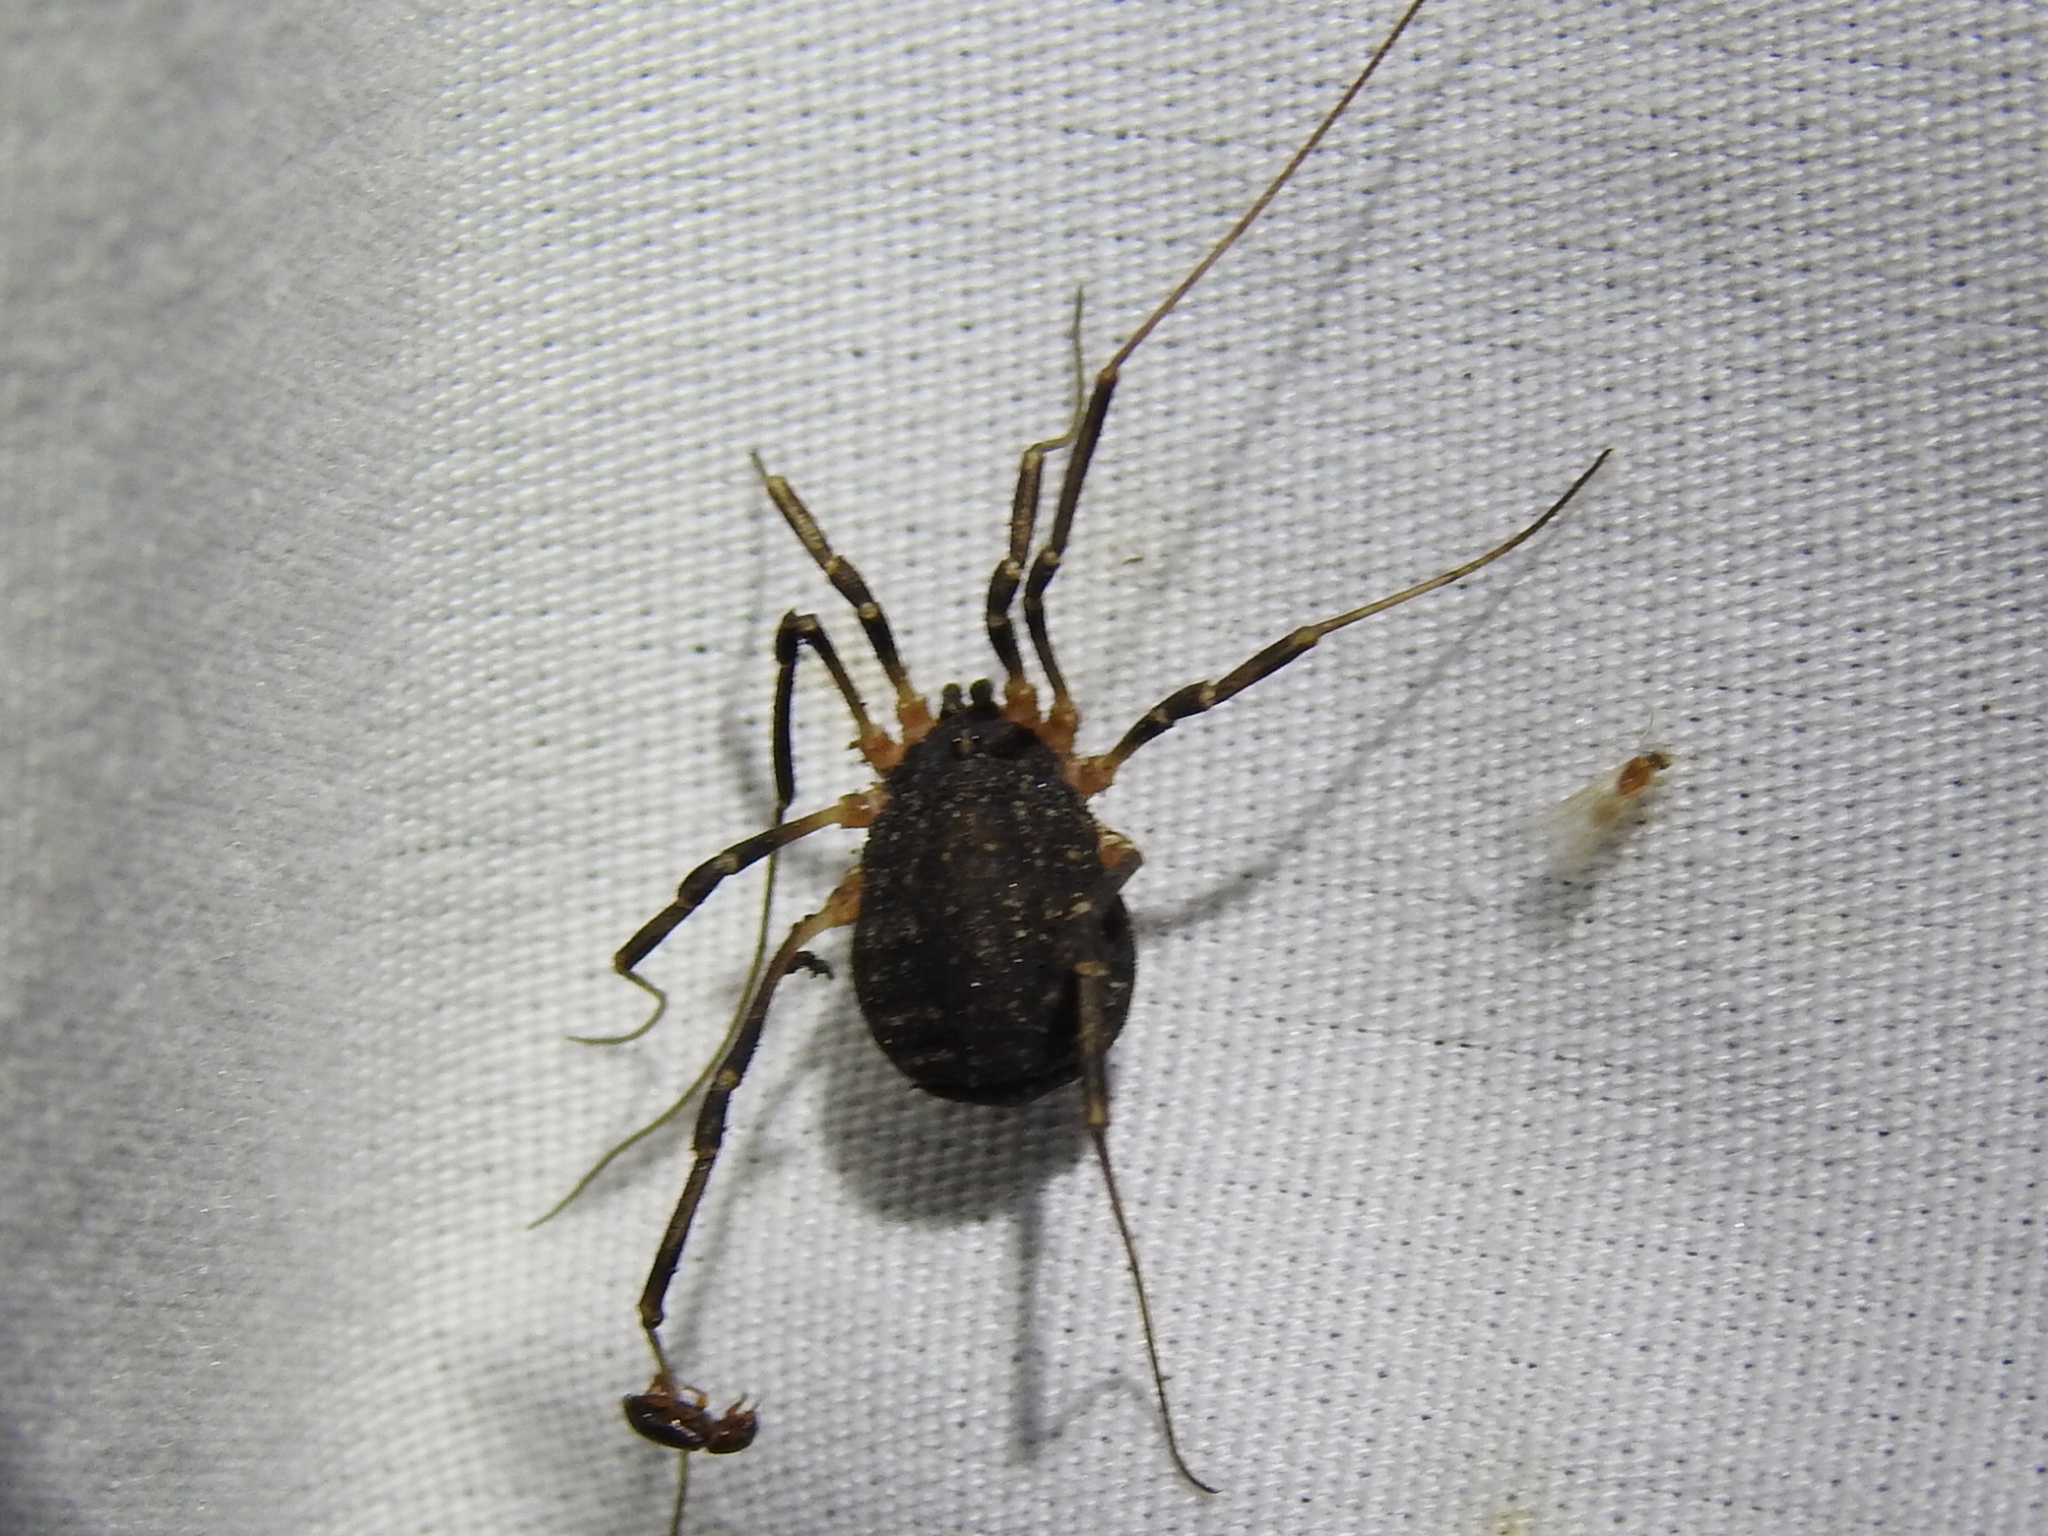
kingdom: Animalia
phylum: Arthropoda
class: Arachnida
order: Opiliones
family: Sclerosomatidae
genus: Eumesosoma
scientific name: Eumesosoma roeweri
